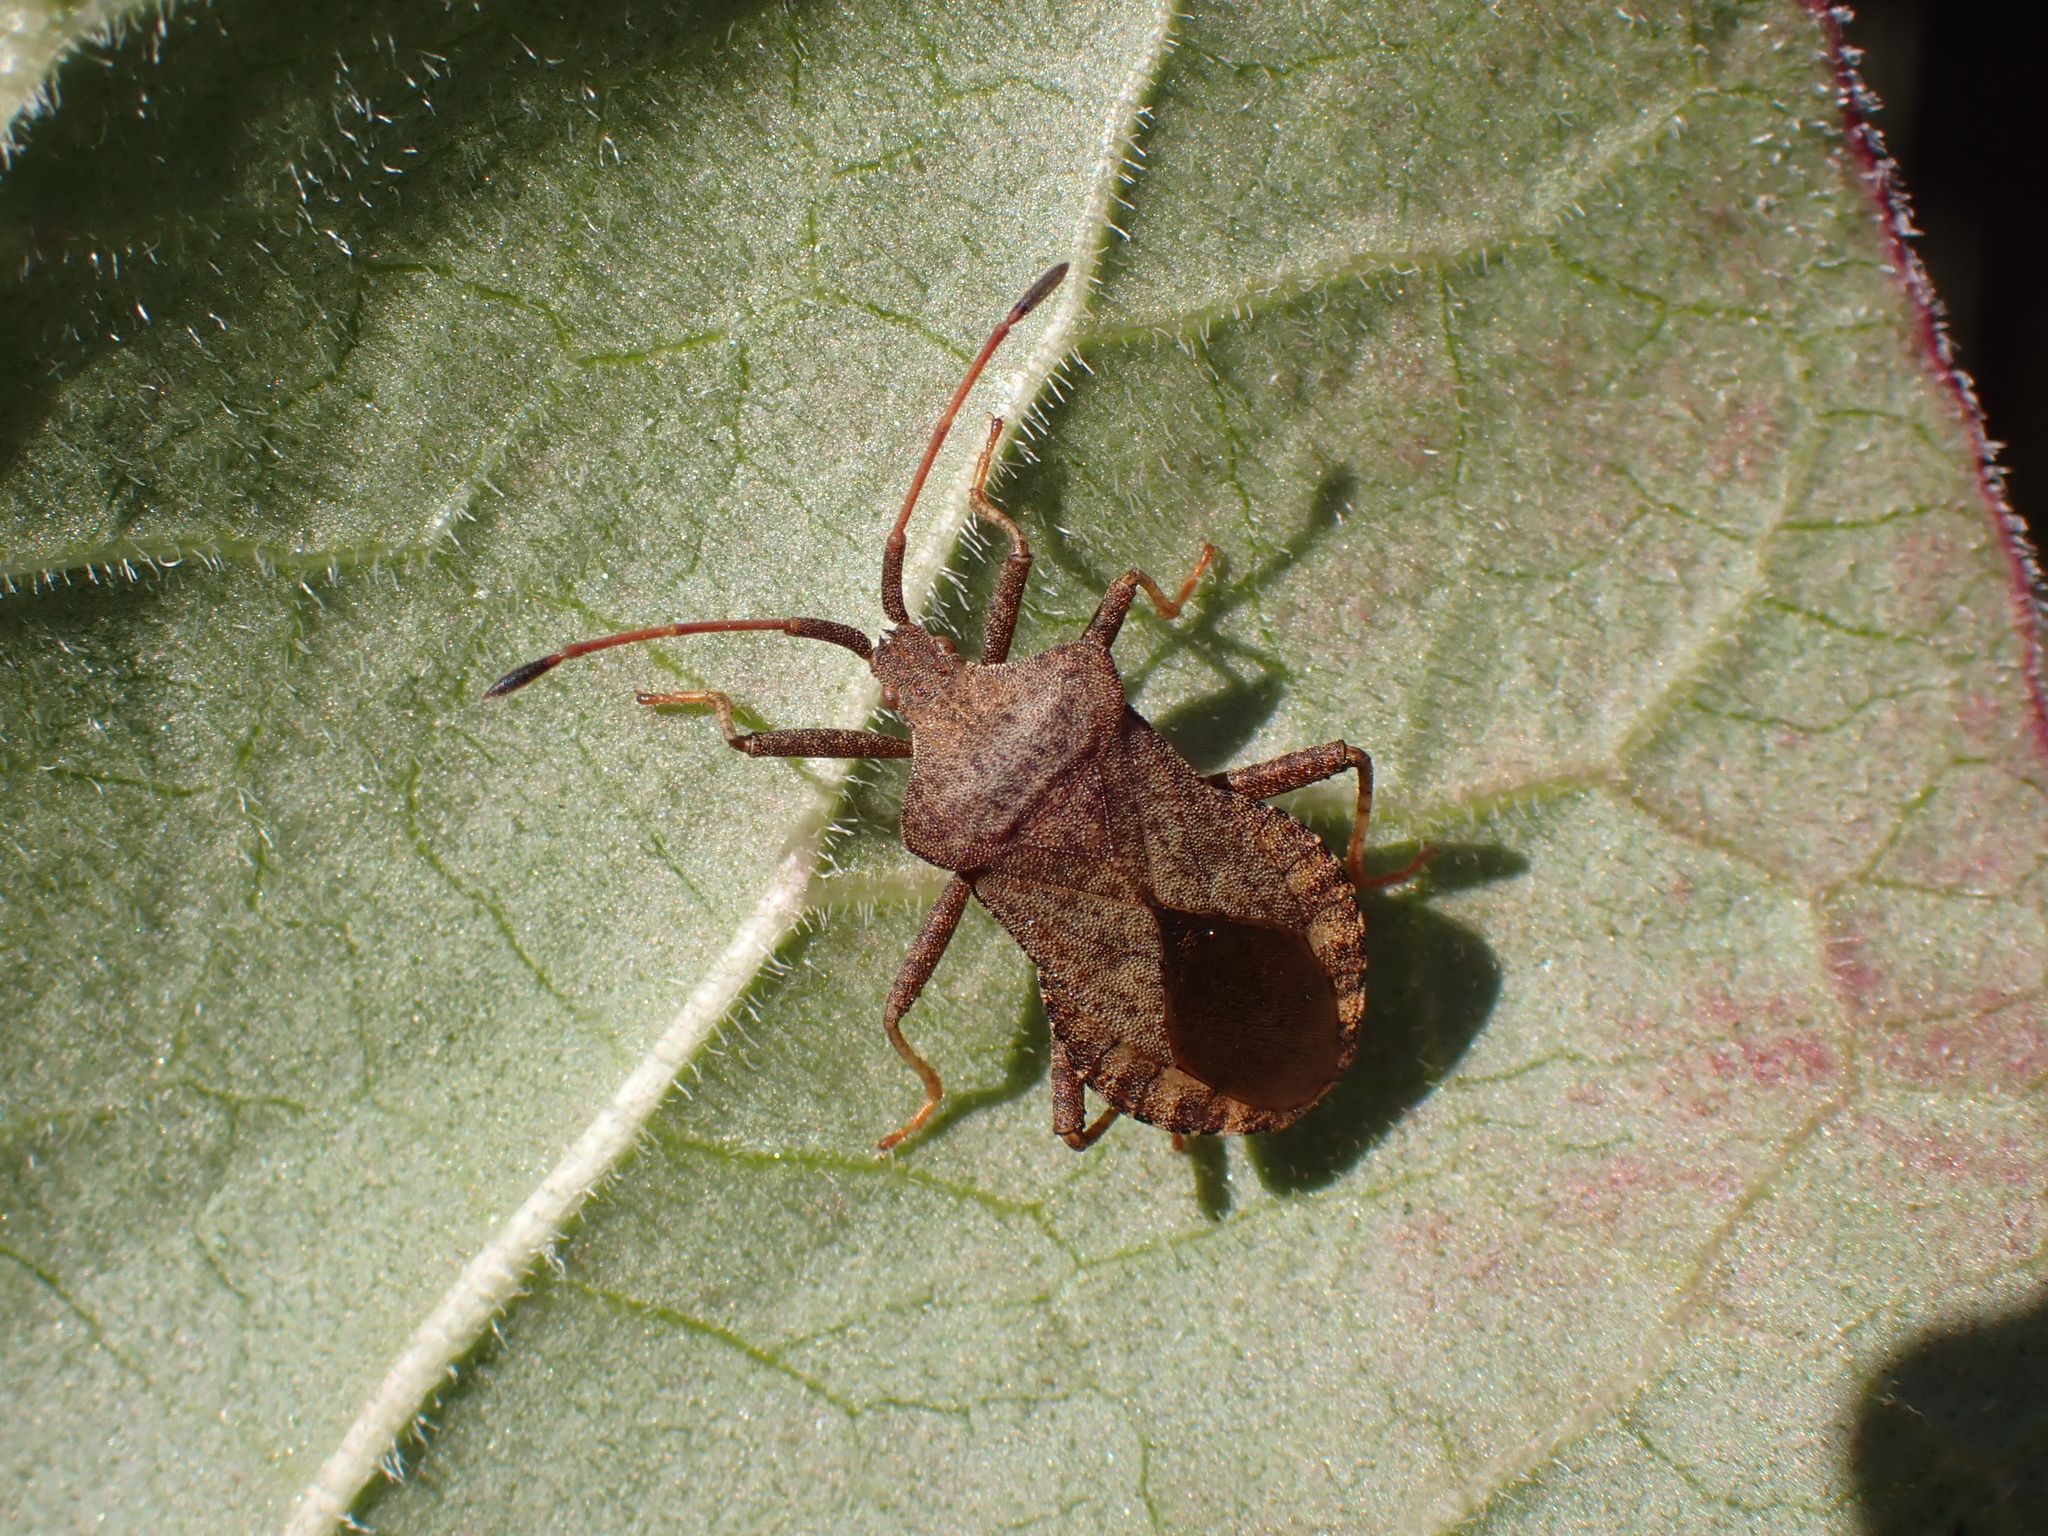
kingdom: Animalia
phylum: Arthropoda
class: Insecta
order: Hemiptera
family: Coreidae
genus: Coreus
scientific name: Coreus marginatus
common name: Dock bug
